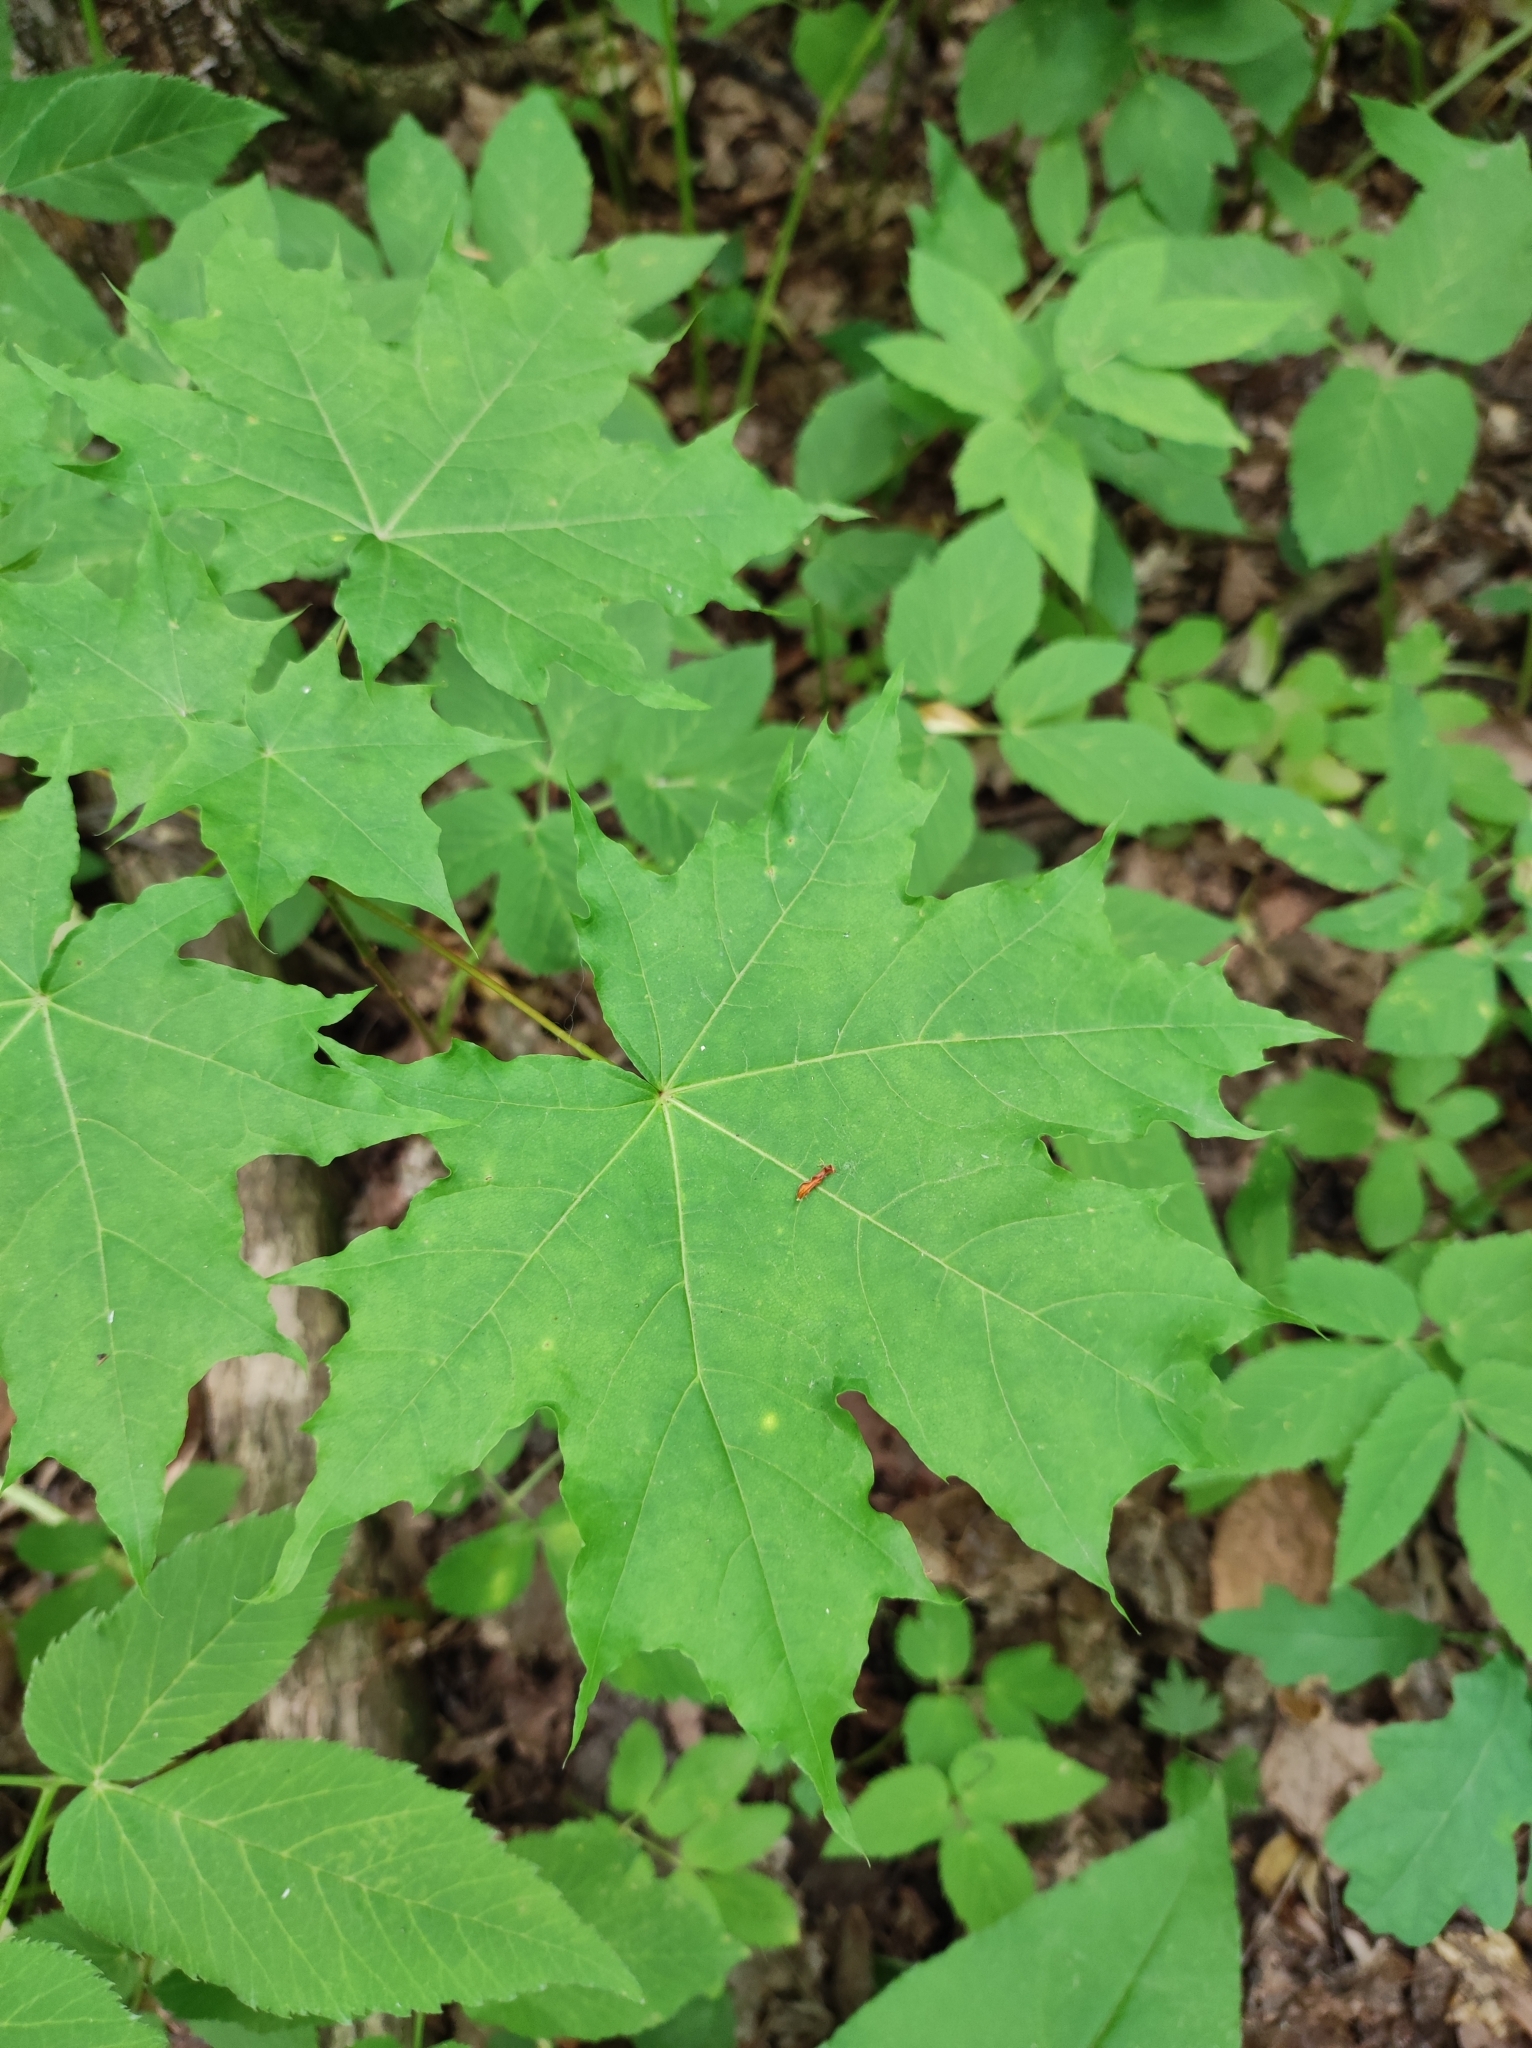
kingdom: Plantae
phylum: Tracheophyta
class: Magnoliopsida
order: Sapindales
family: Sapindaceae
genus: Acer
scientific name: Acer platanoides
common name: Norway maple
